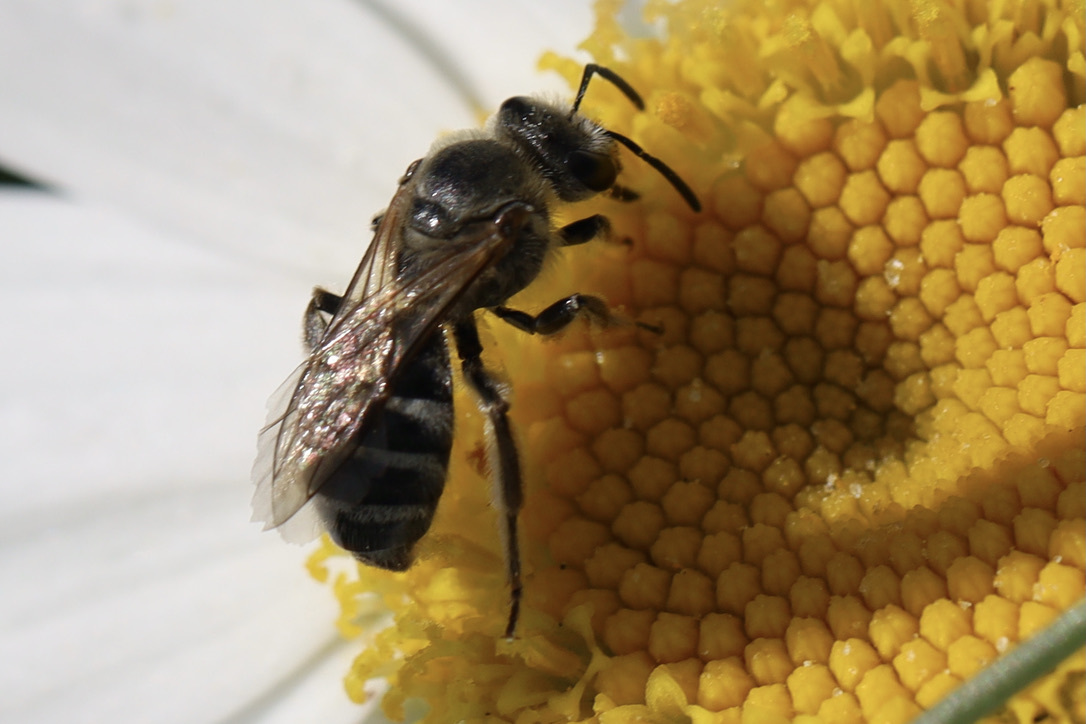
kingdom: Animalia
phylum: Arthropoda
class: Insecta
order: Hymenoptera
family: Halictidae
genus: Lasioglossum
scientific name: Lasioglossum sisymbrii
